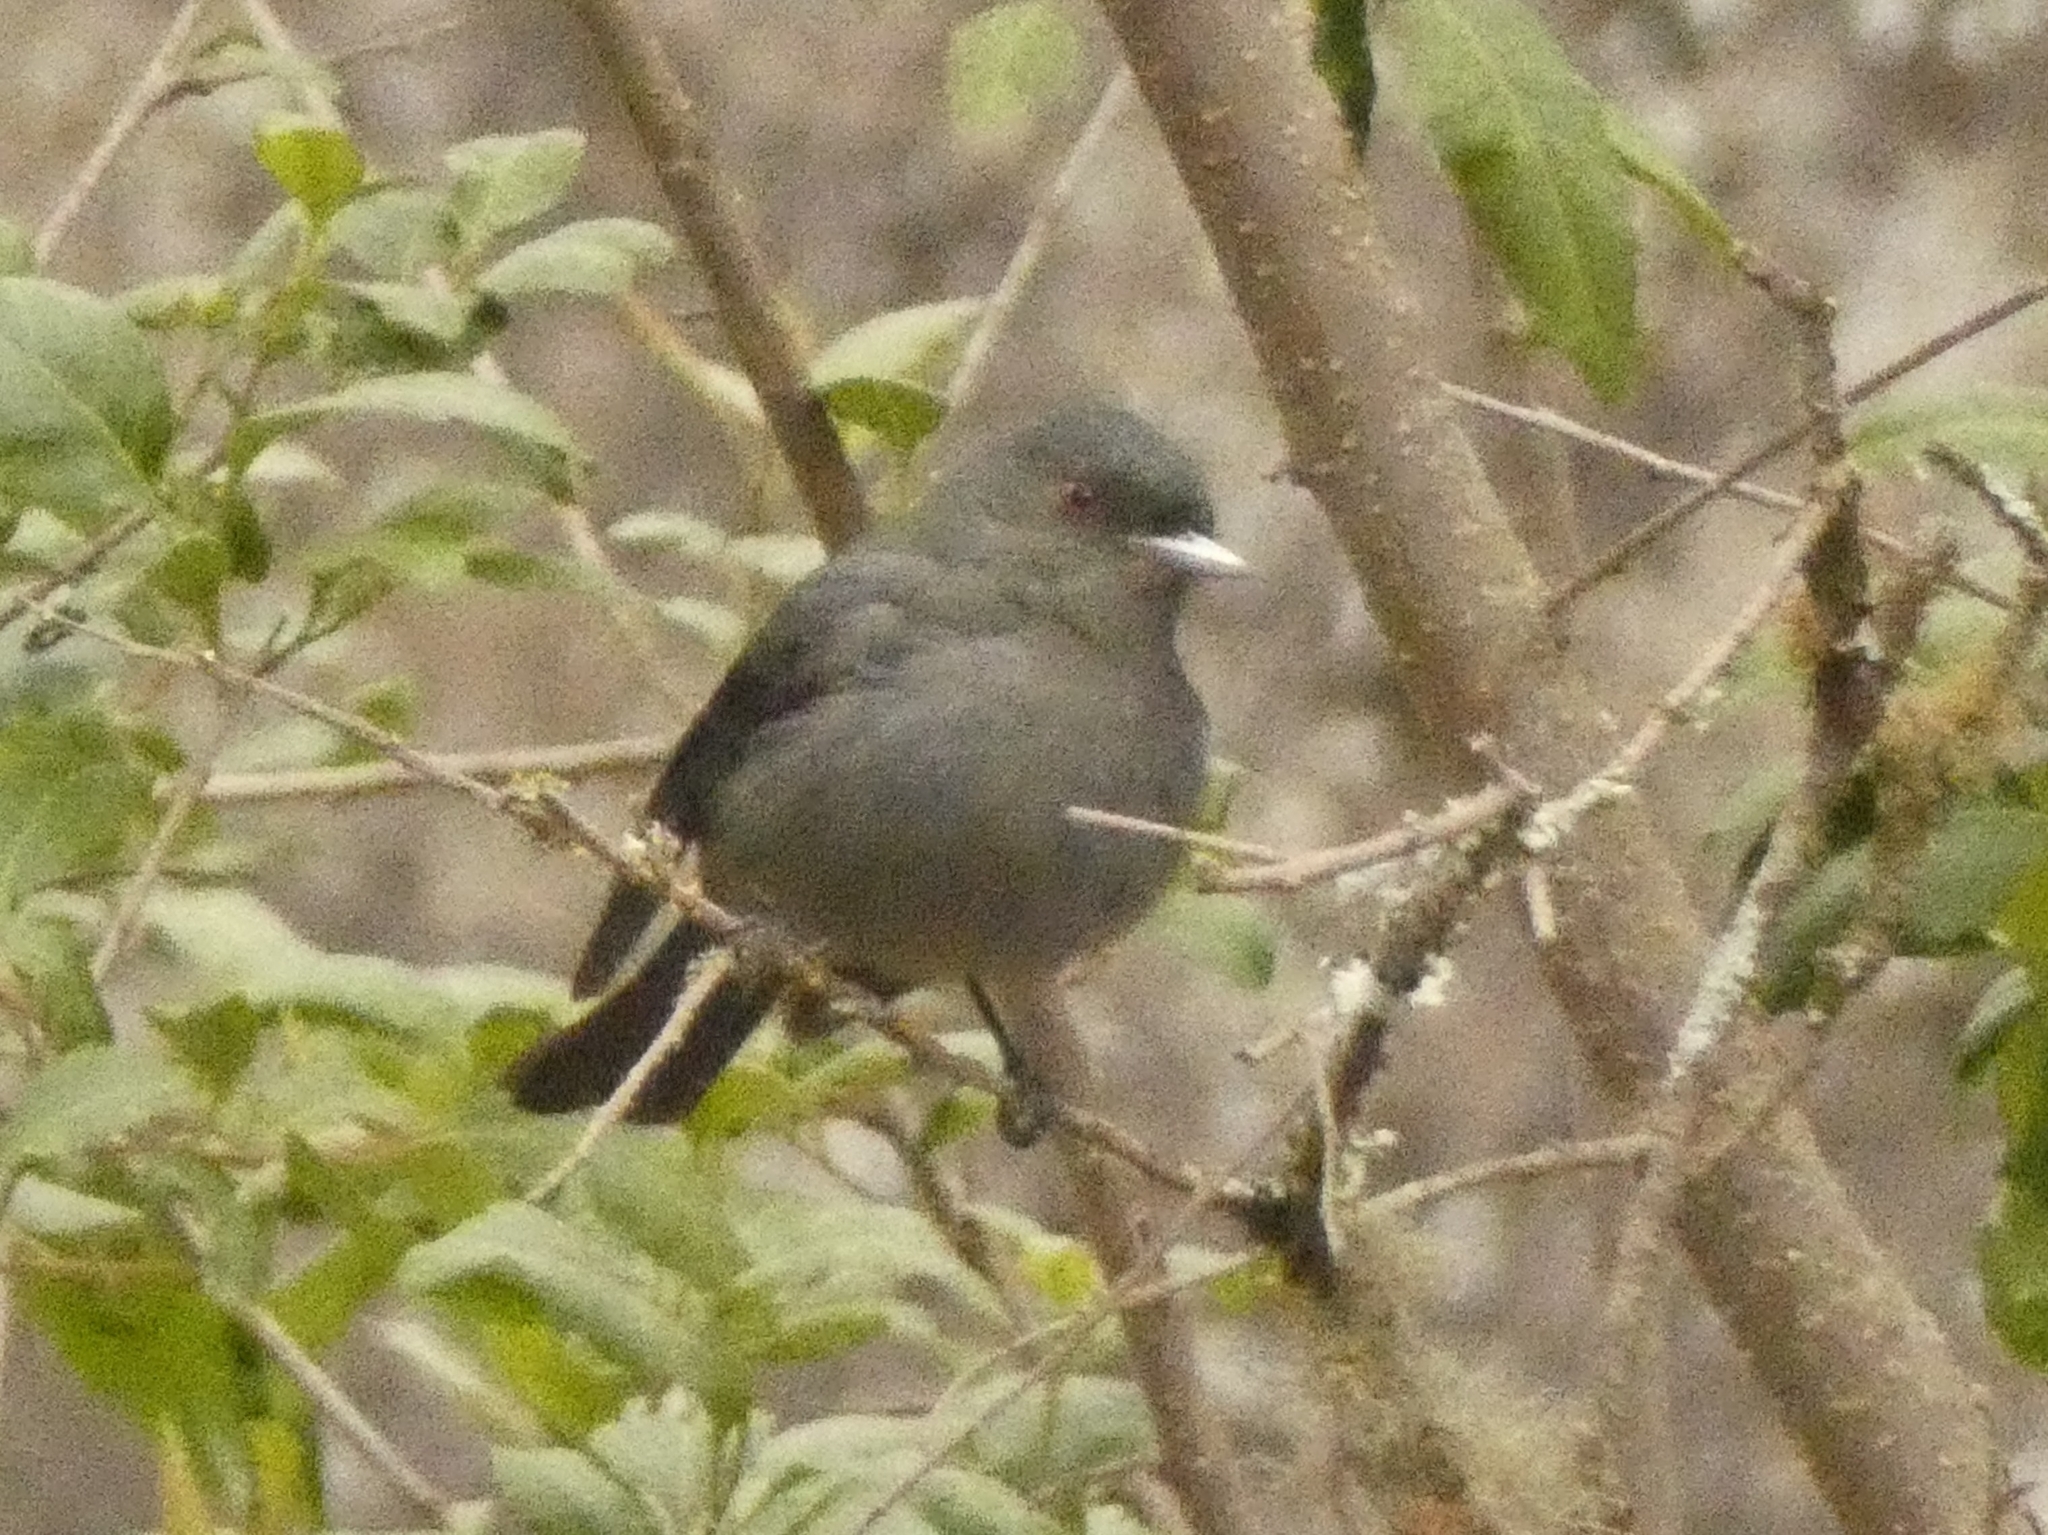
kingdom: Animalia
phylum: Chordata
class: Aves
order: Passeriformes
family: Tyrannidae
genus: Knipolegus
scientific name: Knipolegus cabanisi
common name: Plumbeous tyrant
